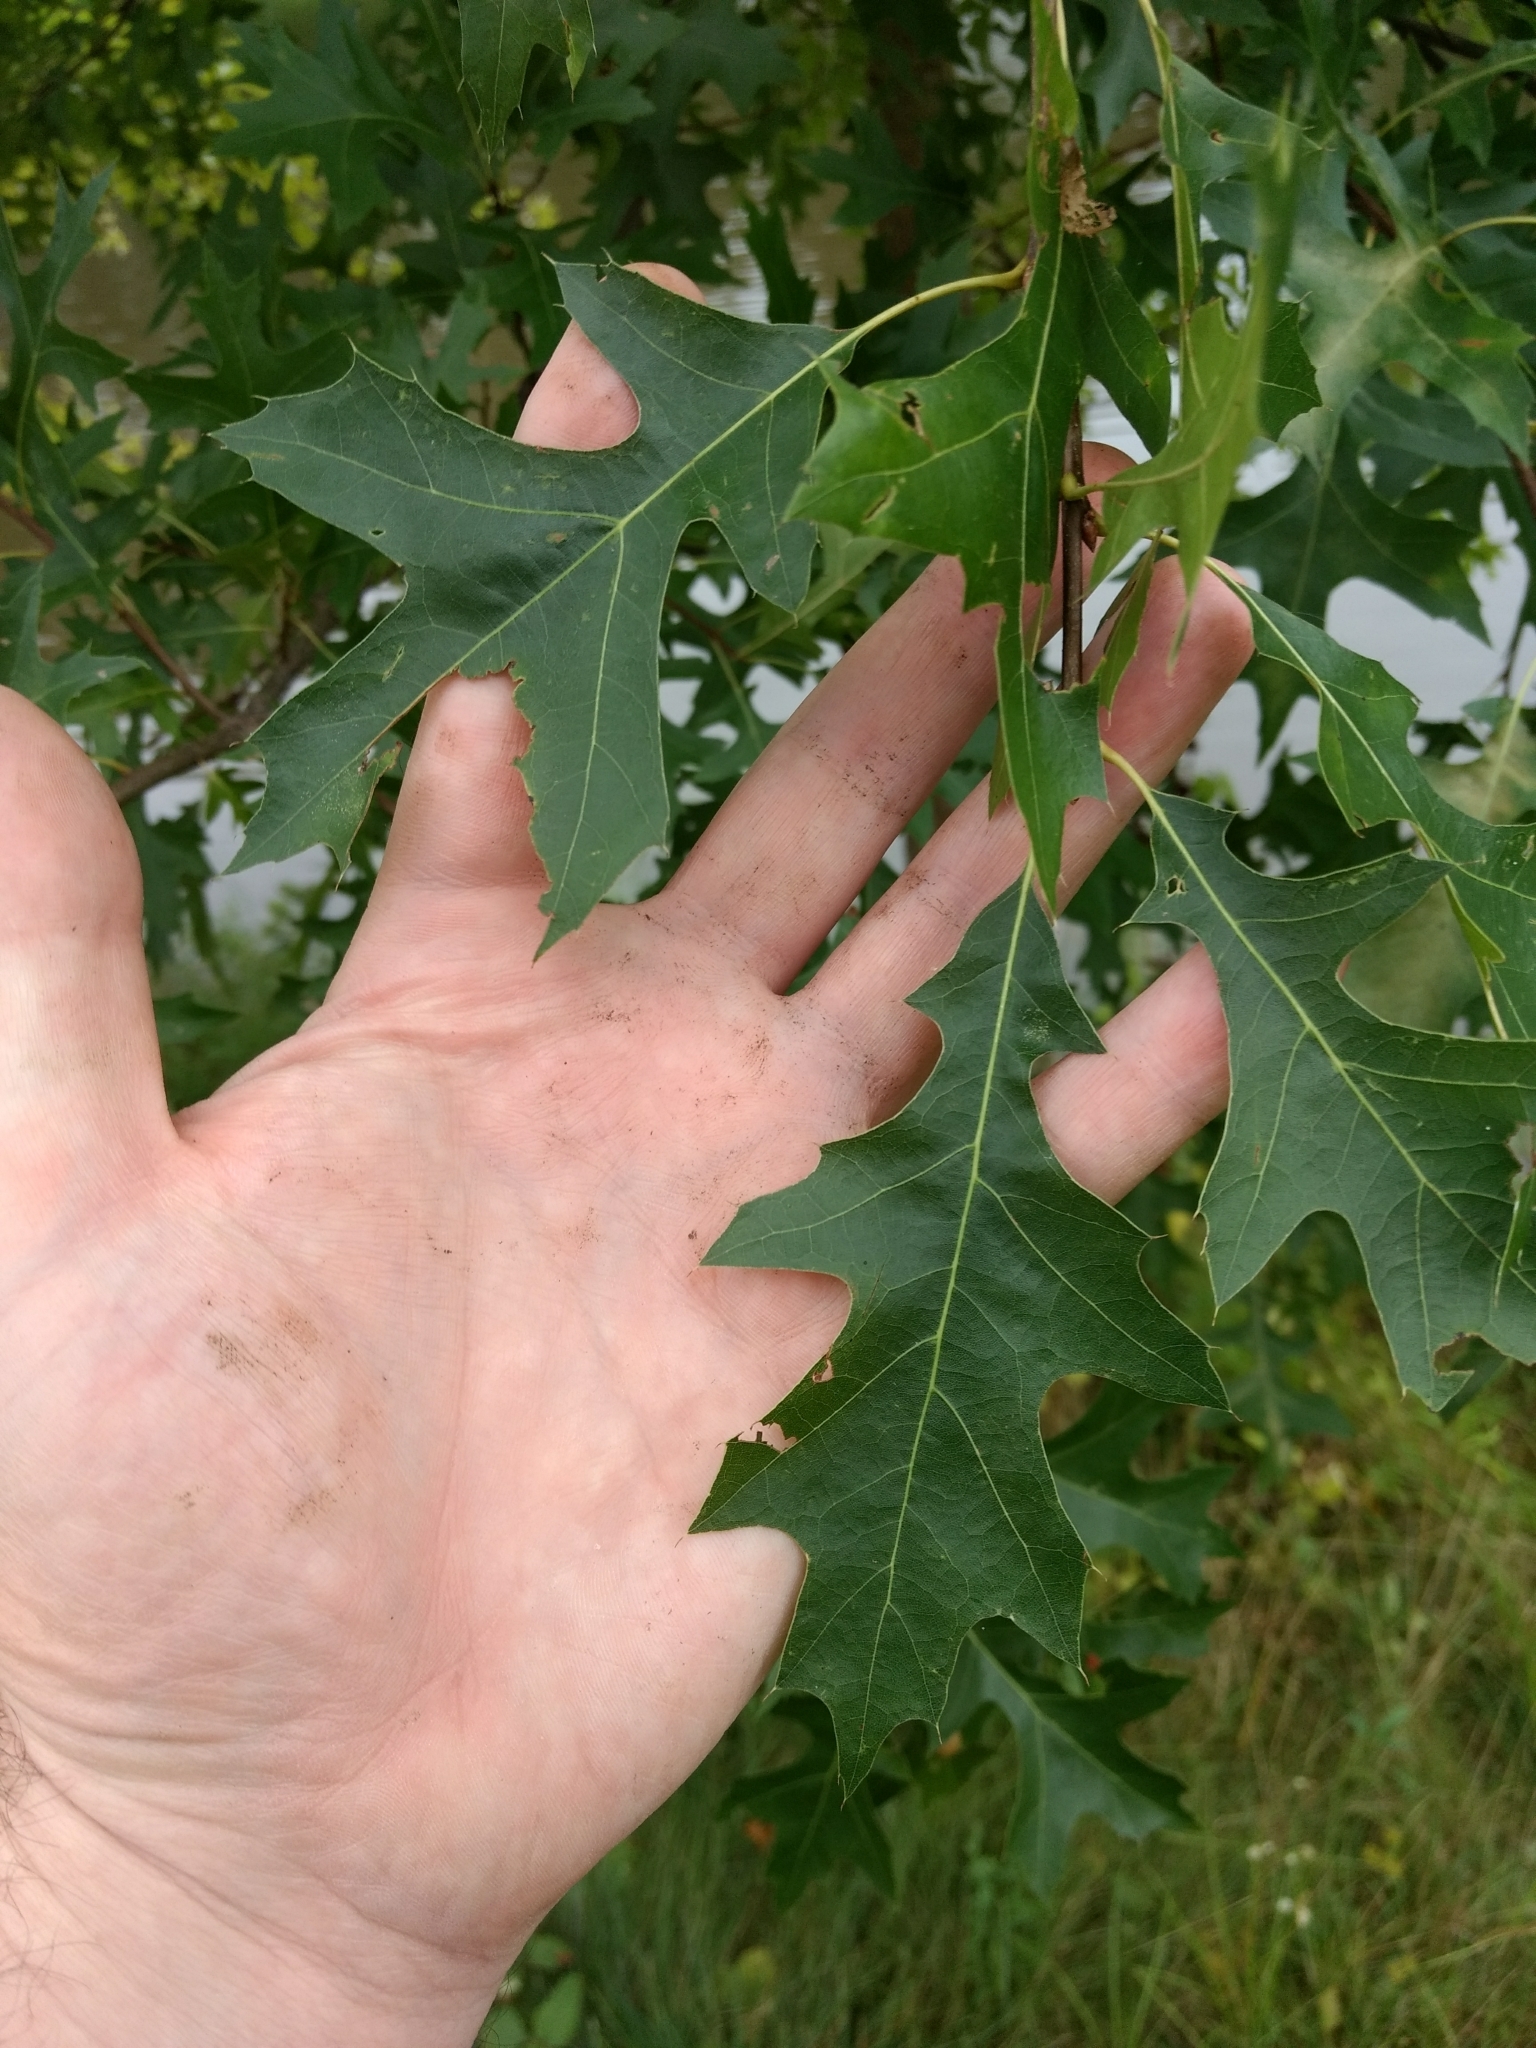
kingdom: Plantae
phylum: Tracheophyta
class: Magnoliopsida
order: Fagales
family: Fagaceae
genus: Quercus
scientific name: Quercus rubra
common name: Red oak
